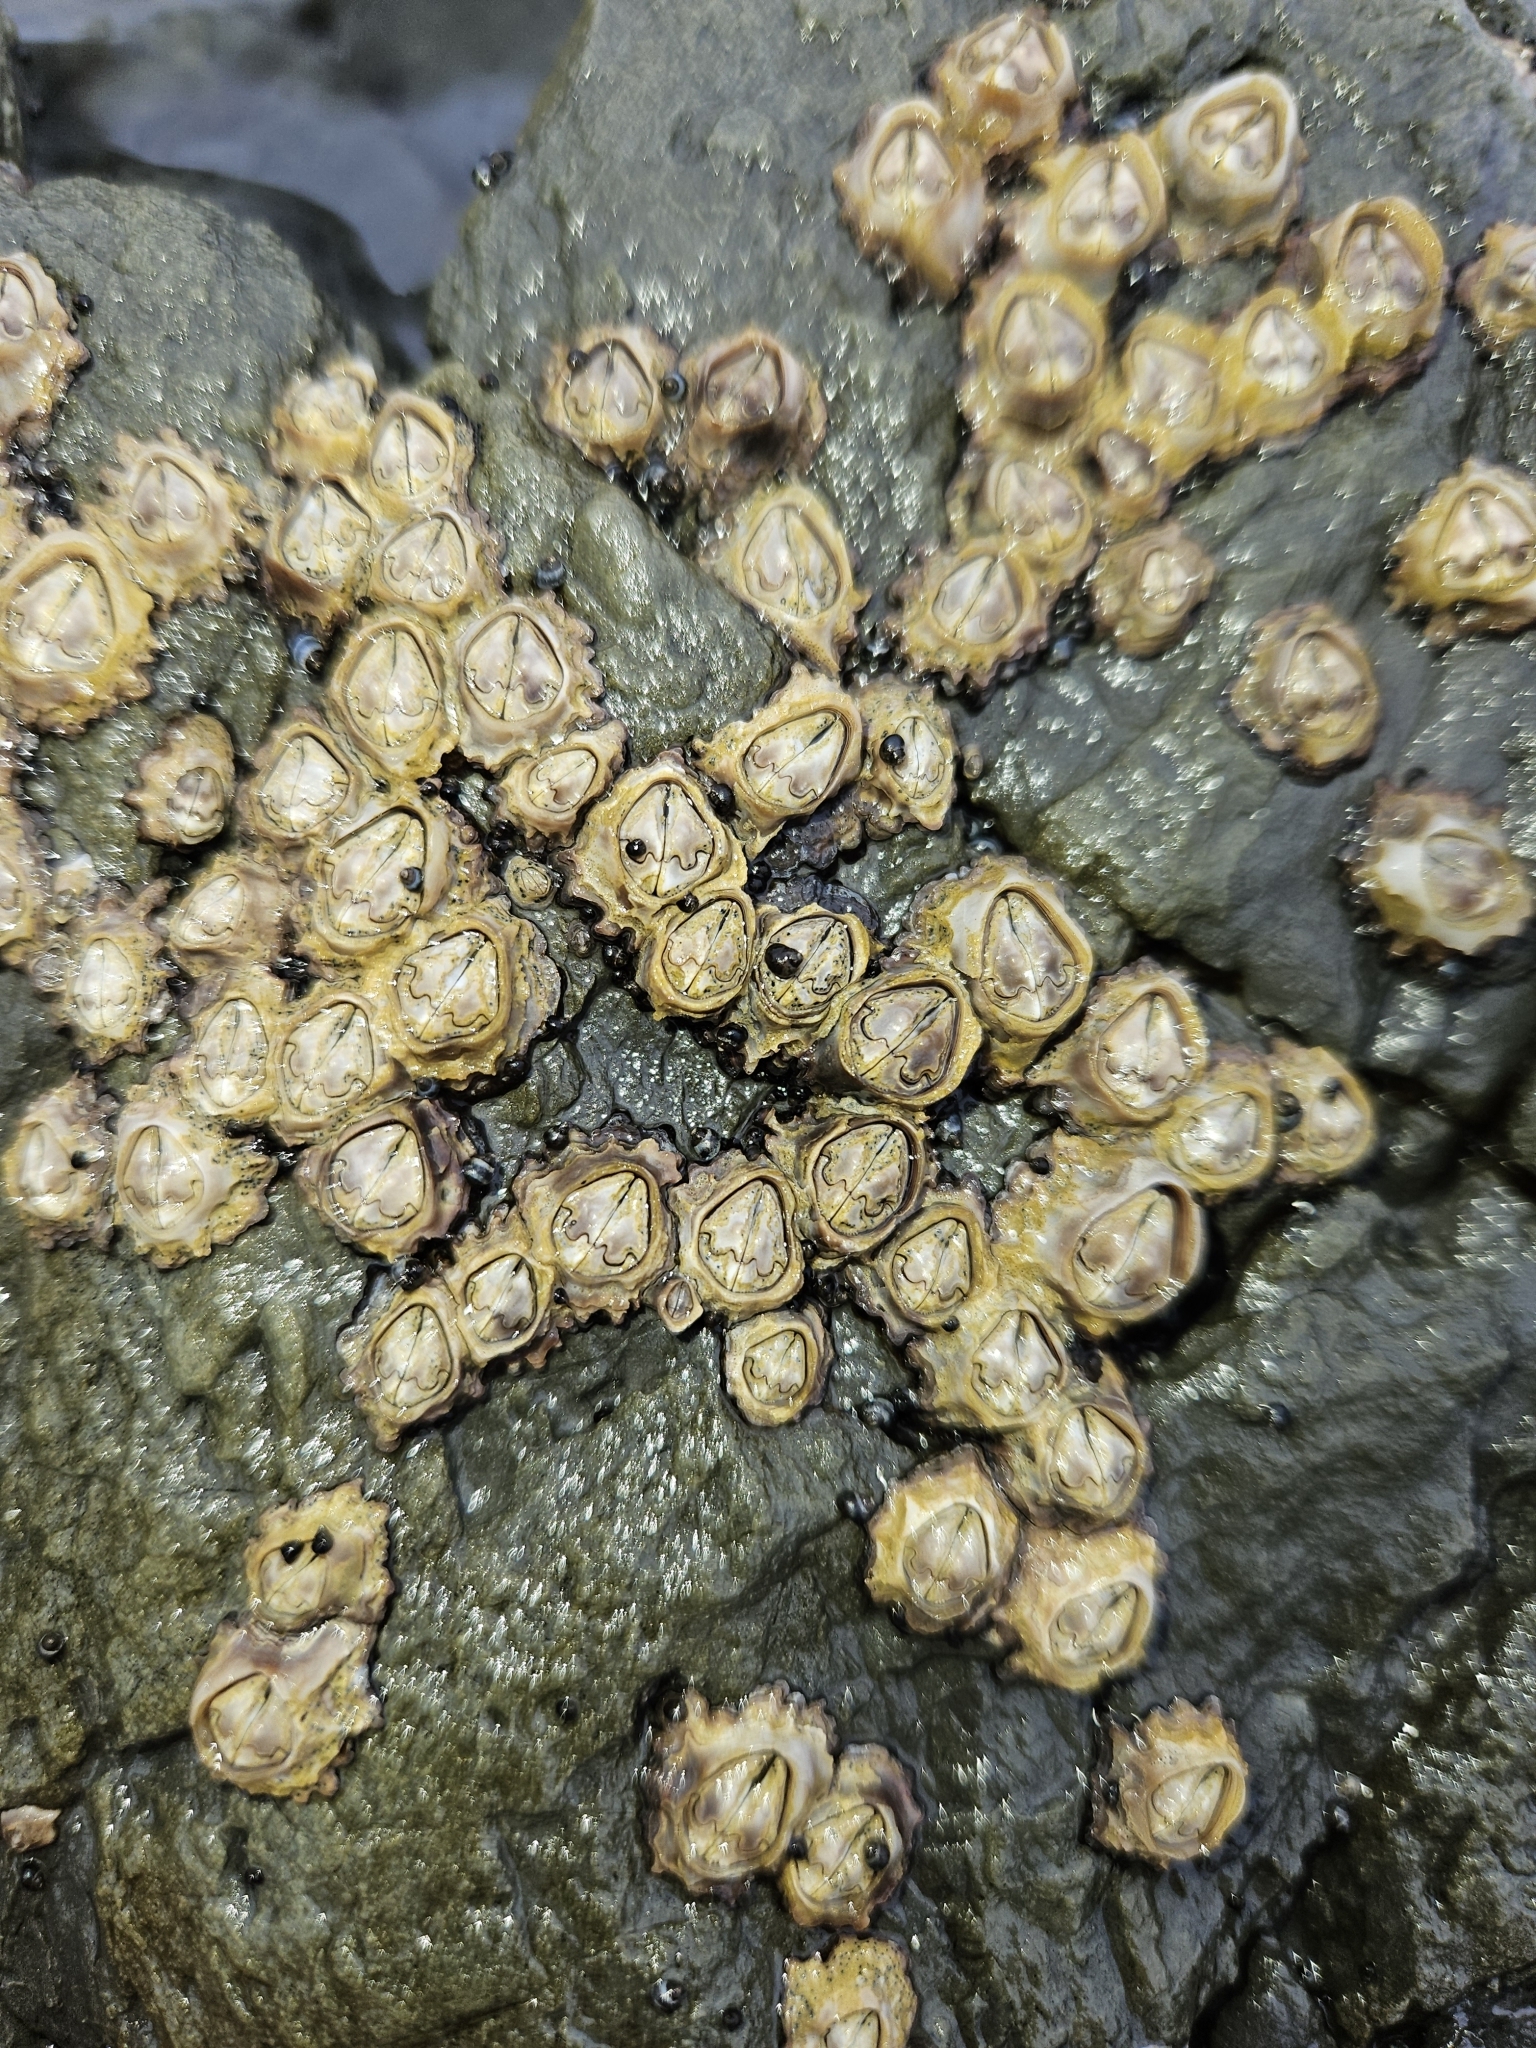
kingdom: Animalia
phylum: Arthropoda
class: Maxillopoda
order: Sessilia
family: Chthamalidae
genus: Chamaesipho
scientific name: Chamaesipho brunnea
